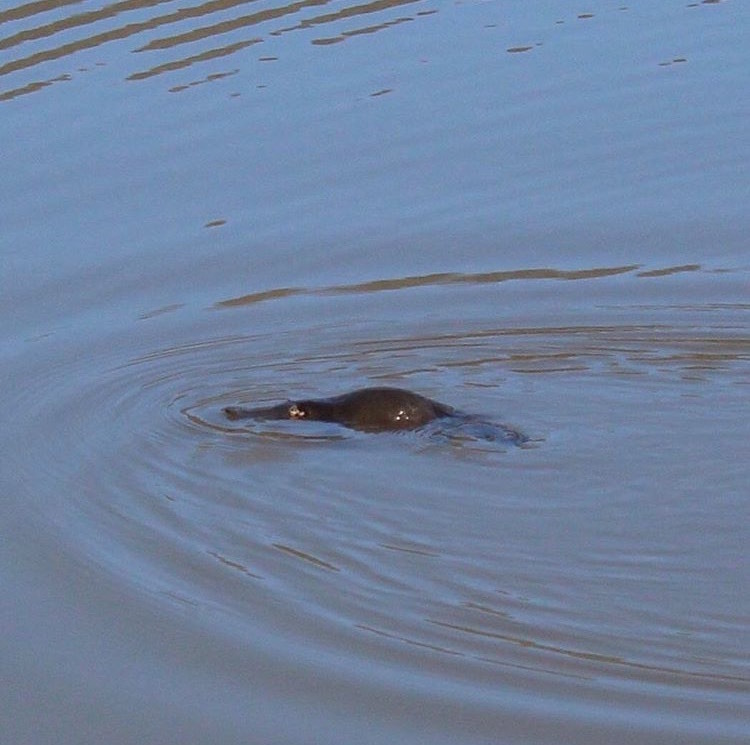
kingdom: Animalia
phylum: Chordata
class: Mammalia
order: Monotremata
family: Ornithorhynchidae
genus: Ornithorhynchus
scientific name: Ornithorhynchus anatinus
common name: Platypus
